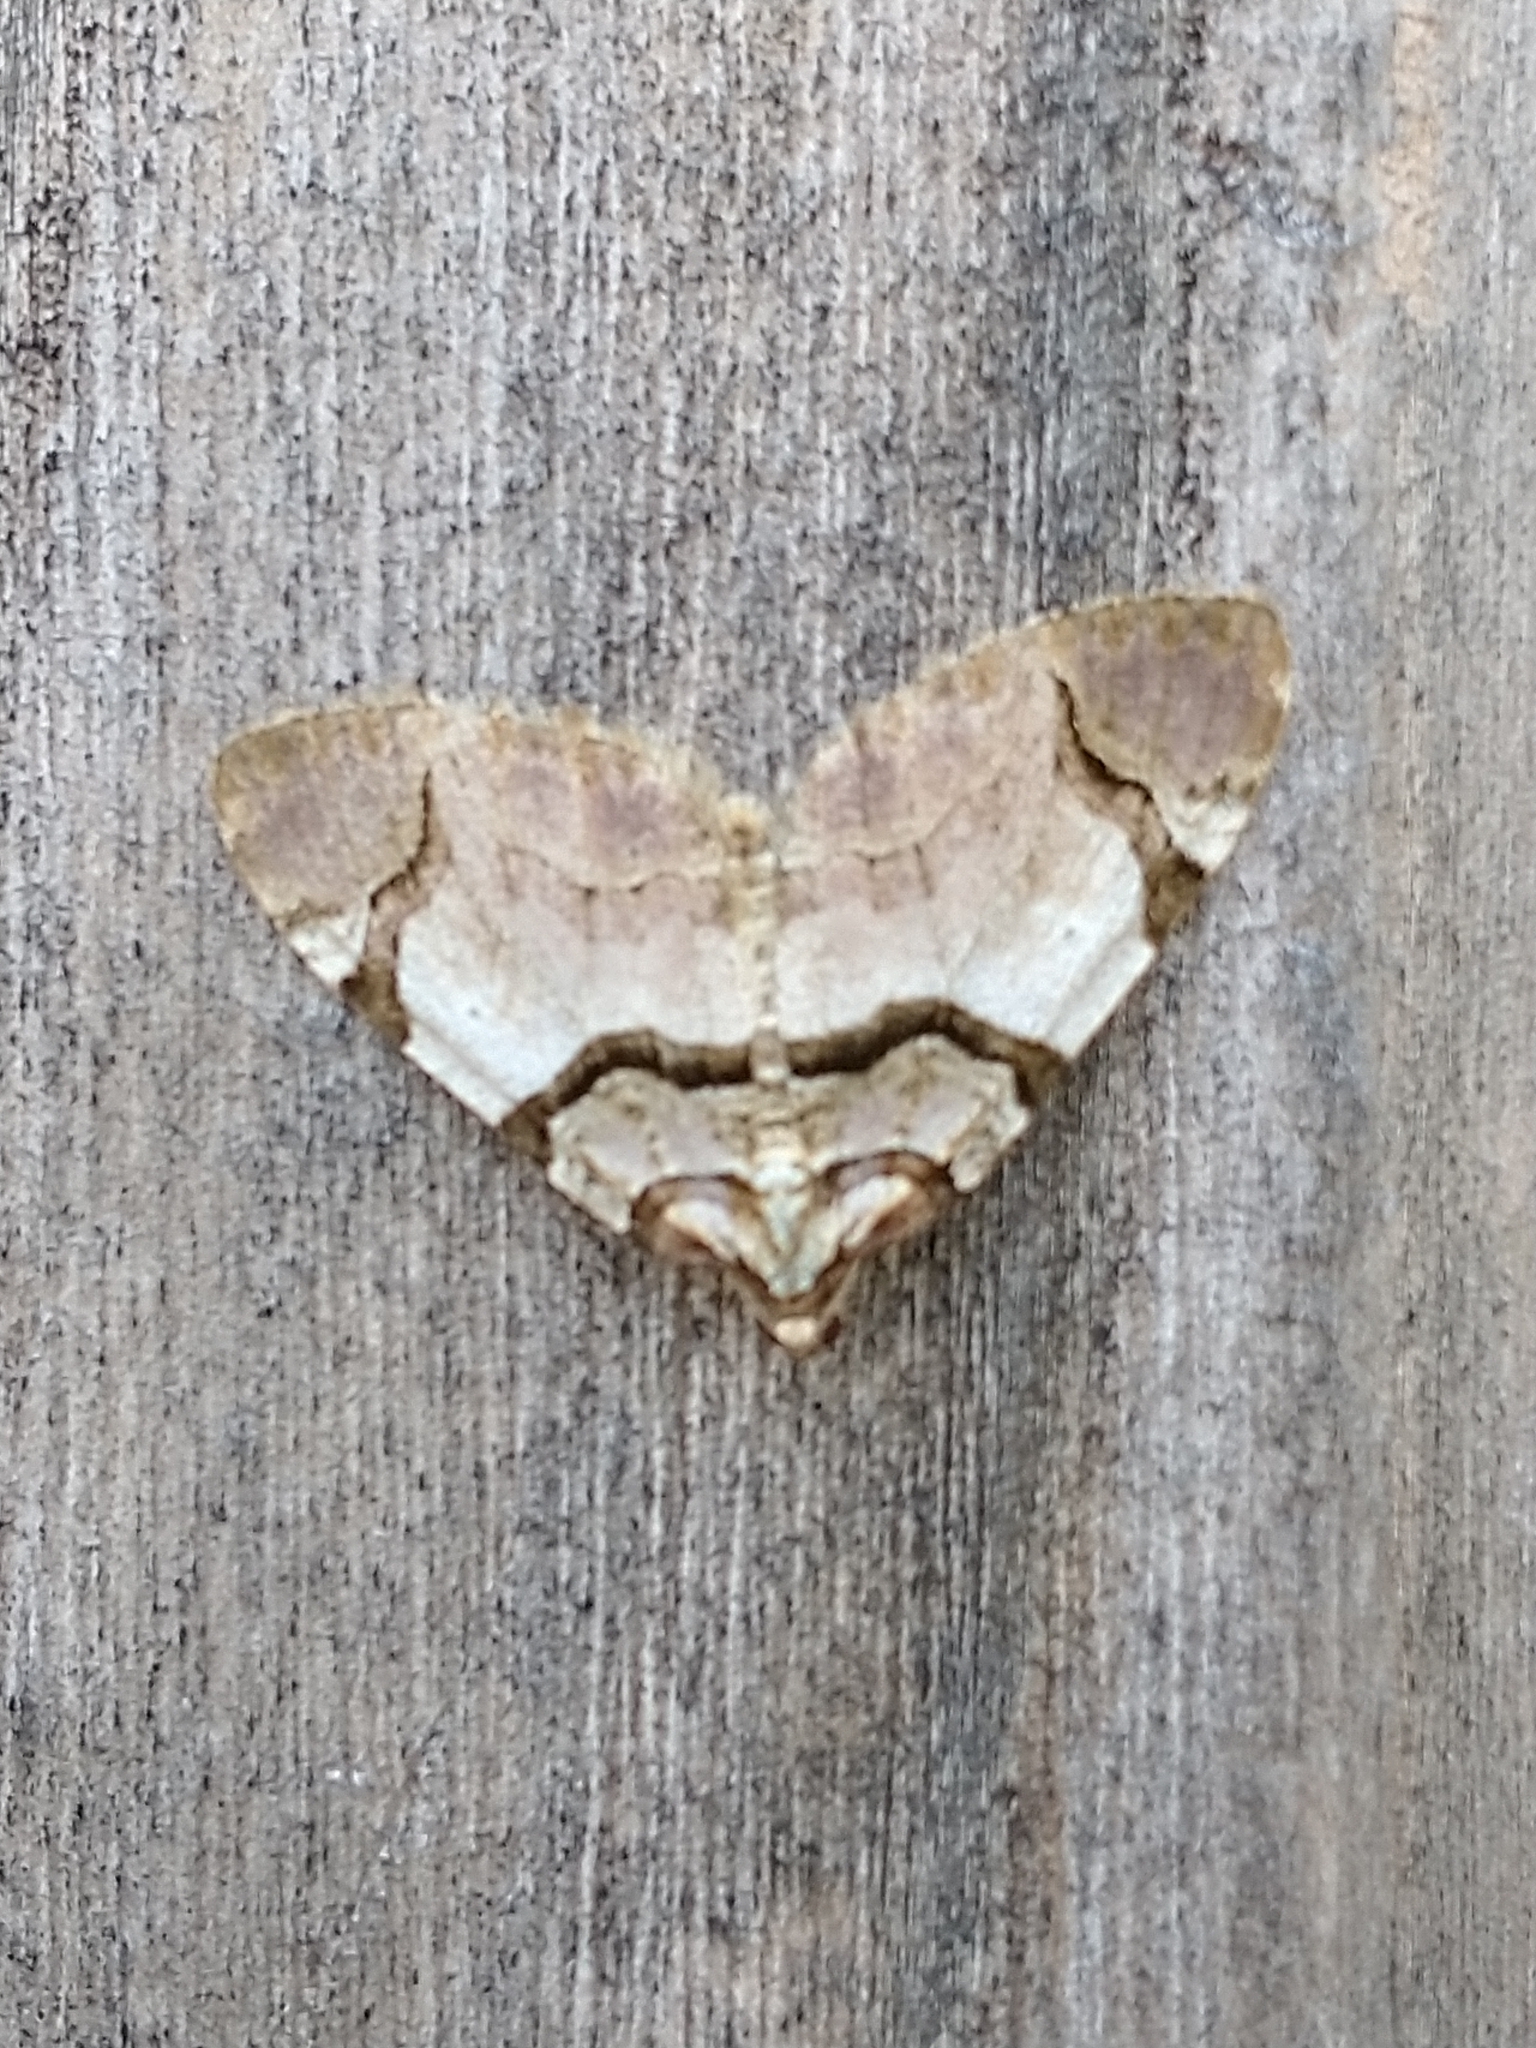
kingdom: Animalia
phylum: Arthropoda
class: Insecta
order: Lepidoptera
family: Geometridae
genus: Anticlea
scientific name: Anticlea derivata
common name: Streamer
